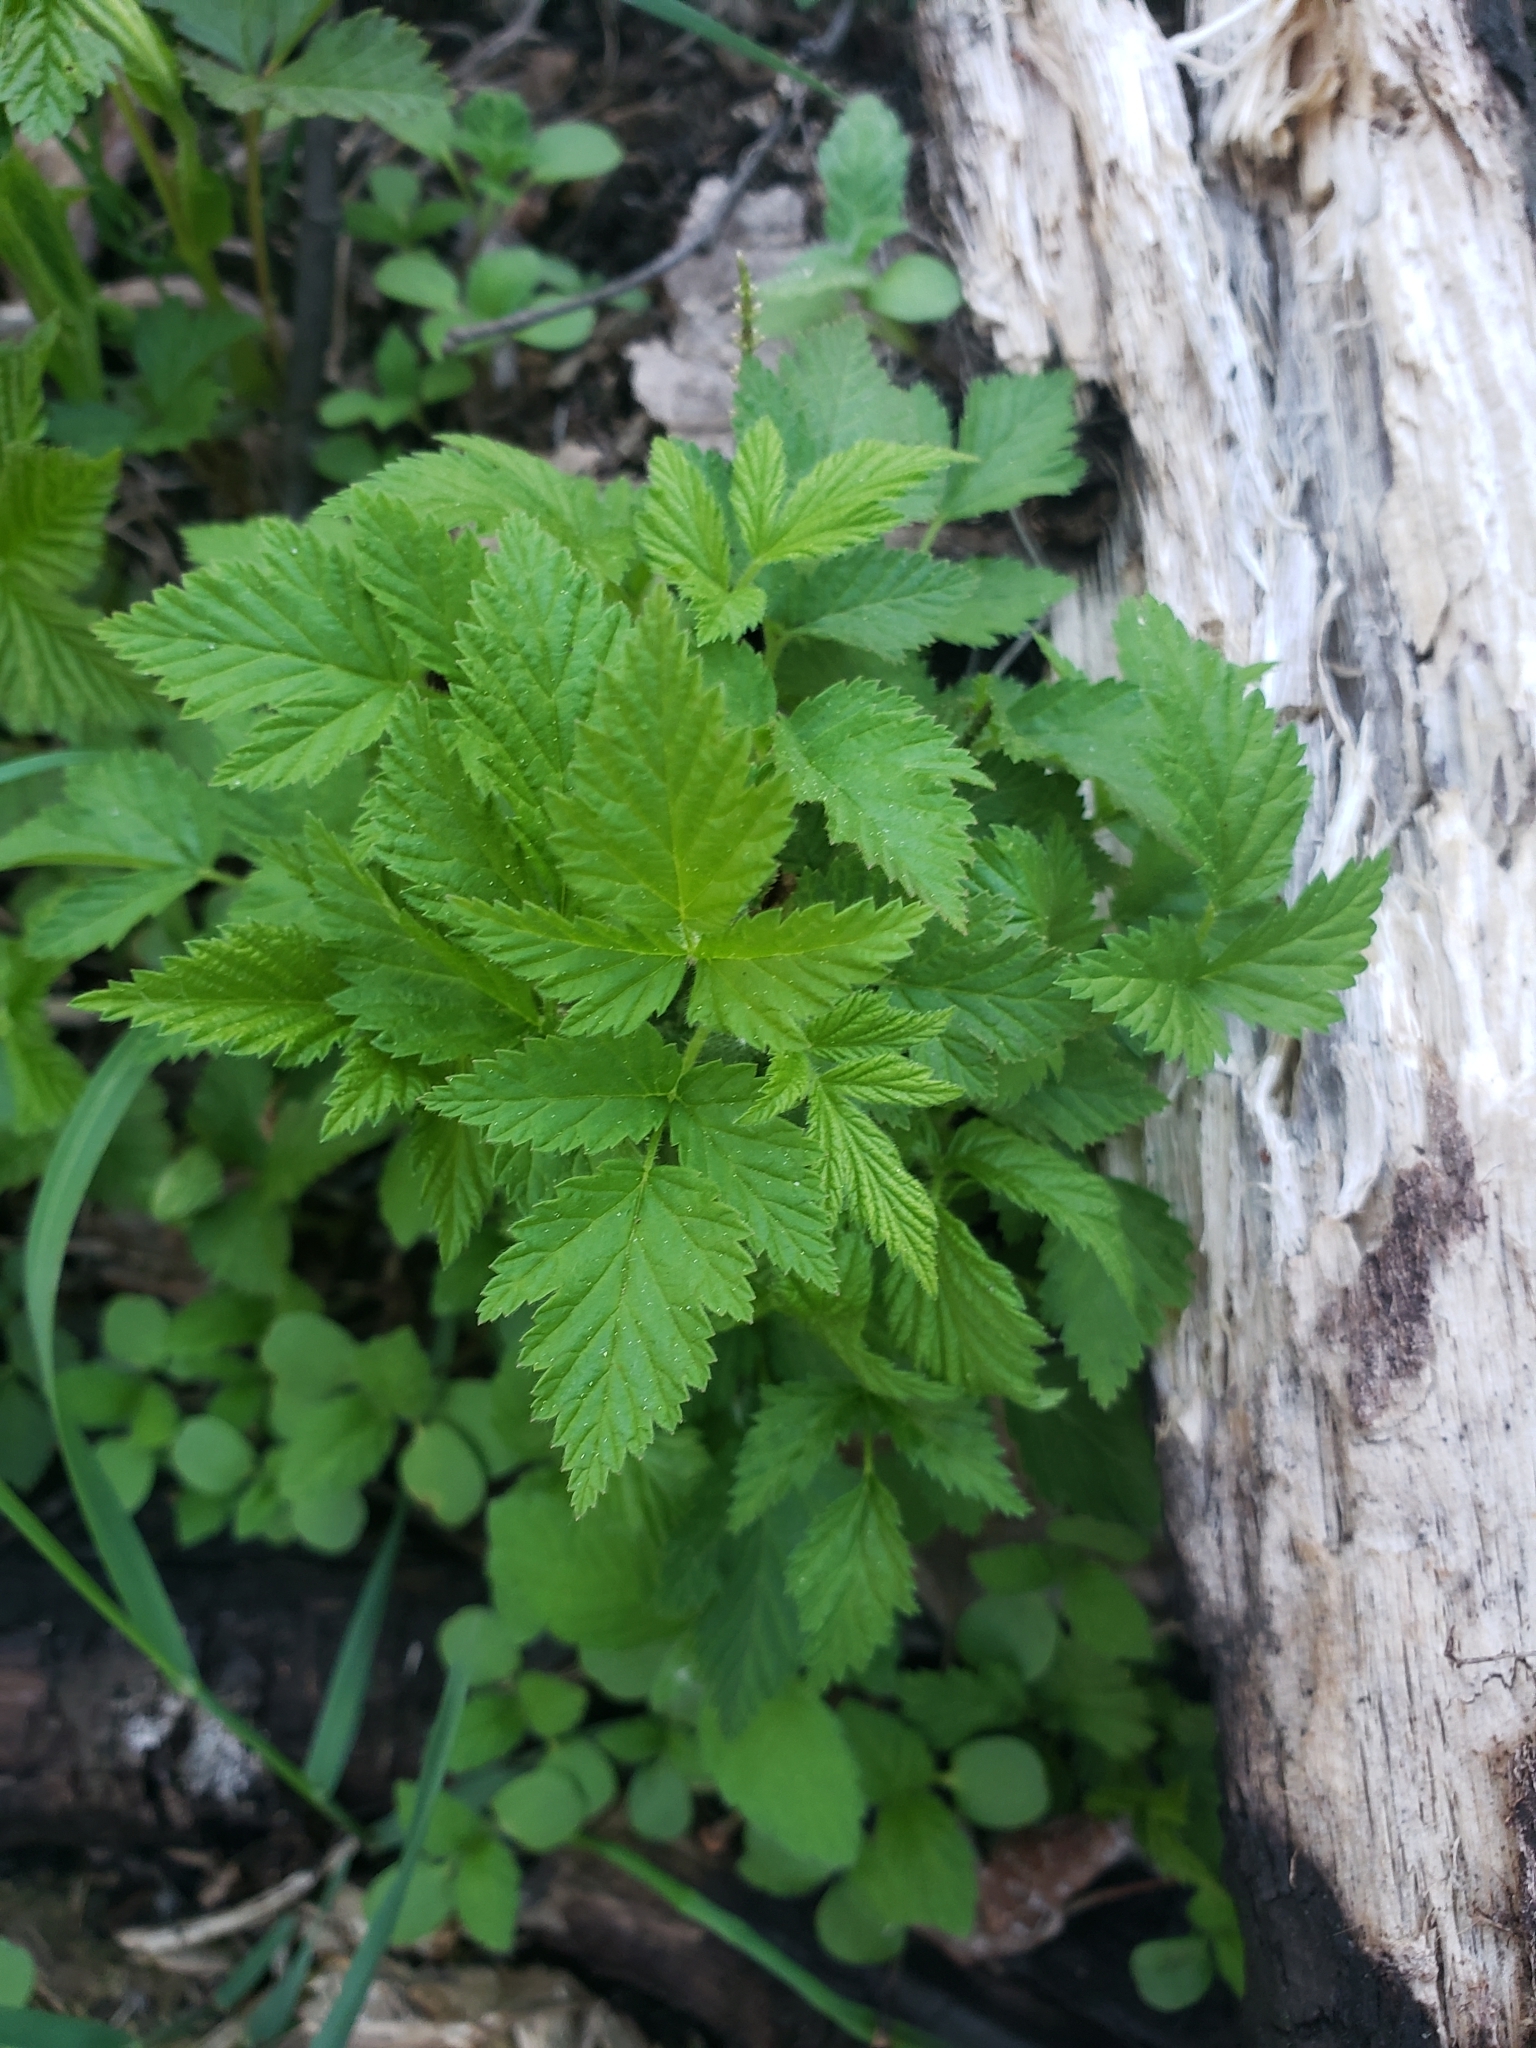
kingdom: Plantae
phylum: Tracheophyta
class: Magnoliopsida
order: Rosales
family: Rosaceae
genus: Rubus
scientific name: Rubus idaeus
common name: Raspberry
